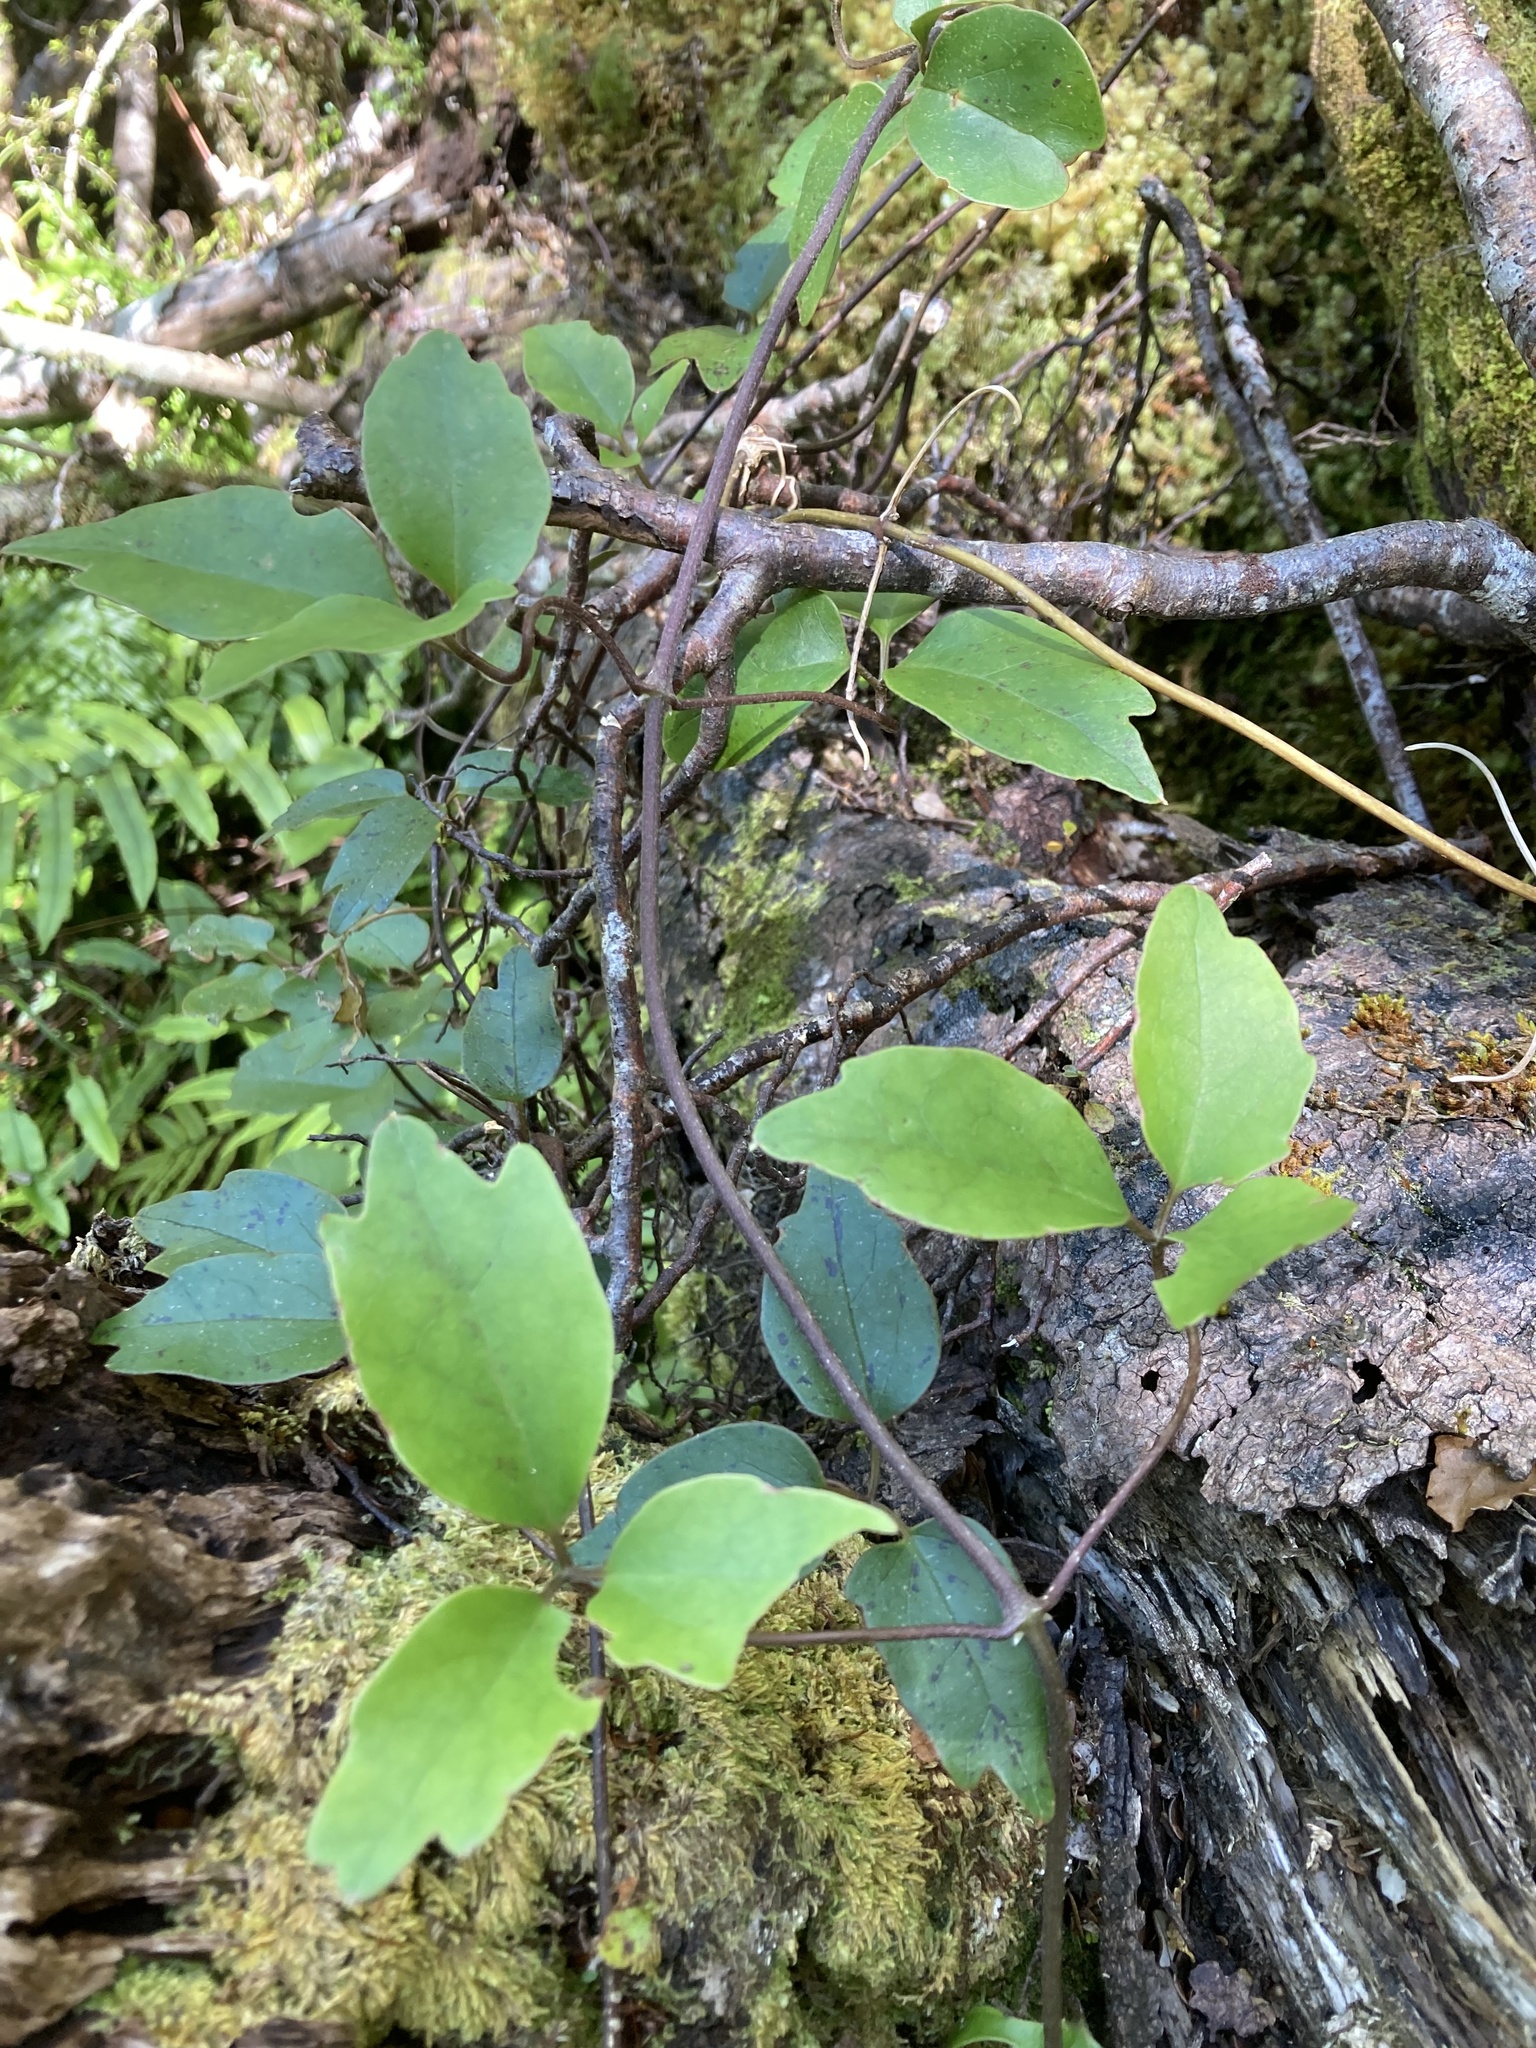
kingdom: Plantae
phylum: Tracheophyta
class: Magnoliopsida
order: Ranunculales
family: Ranunculaceae
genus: Clematis
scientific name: Clematis paniculata
